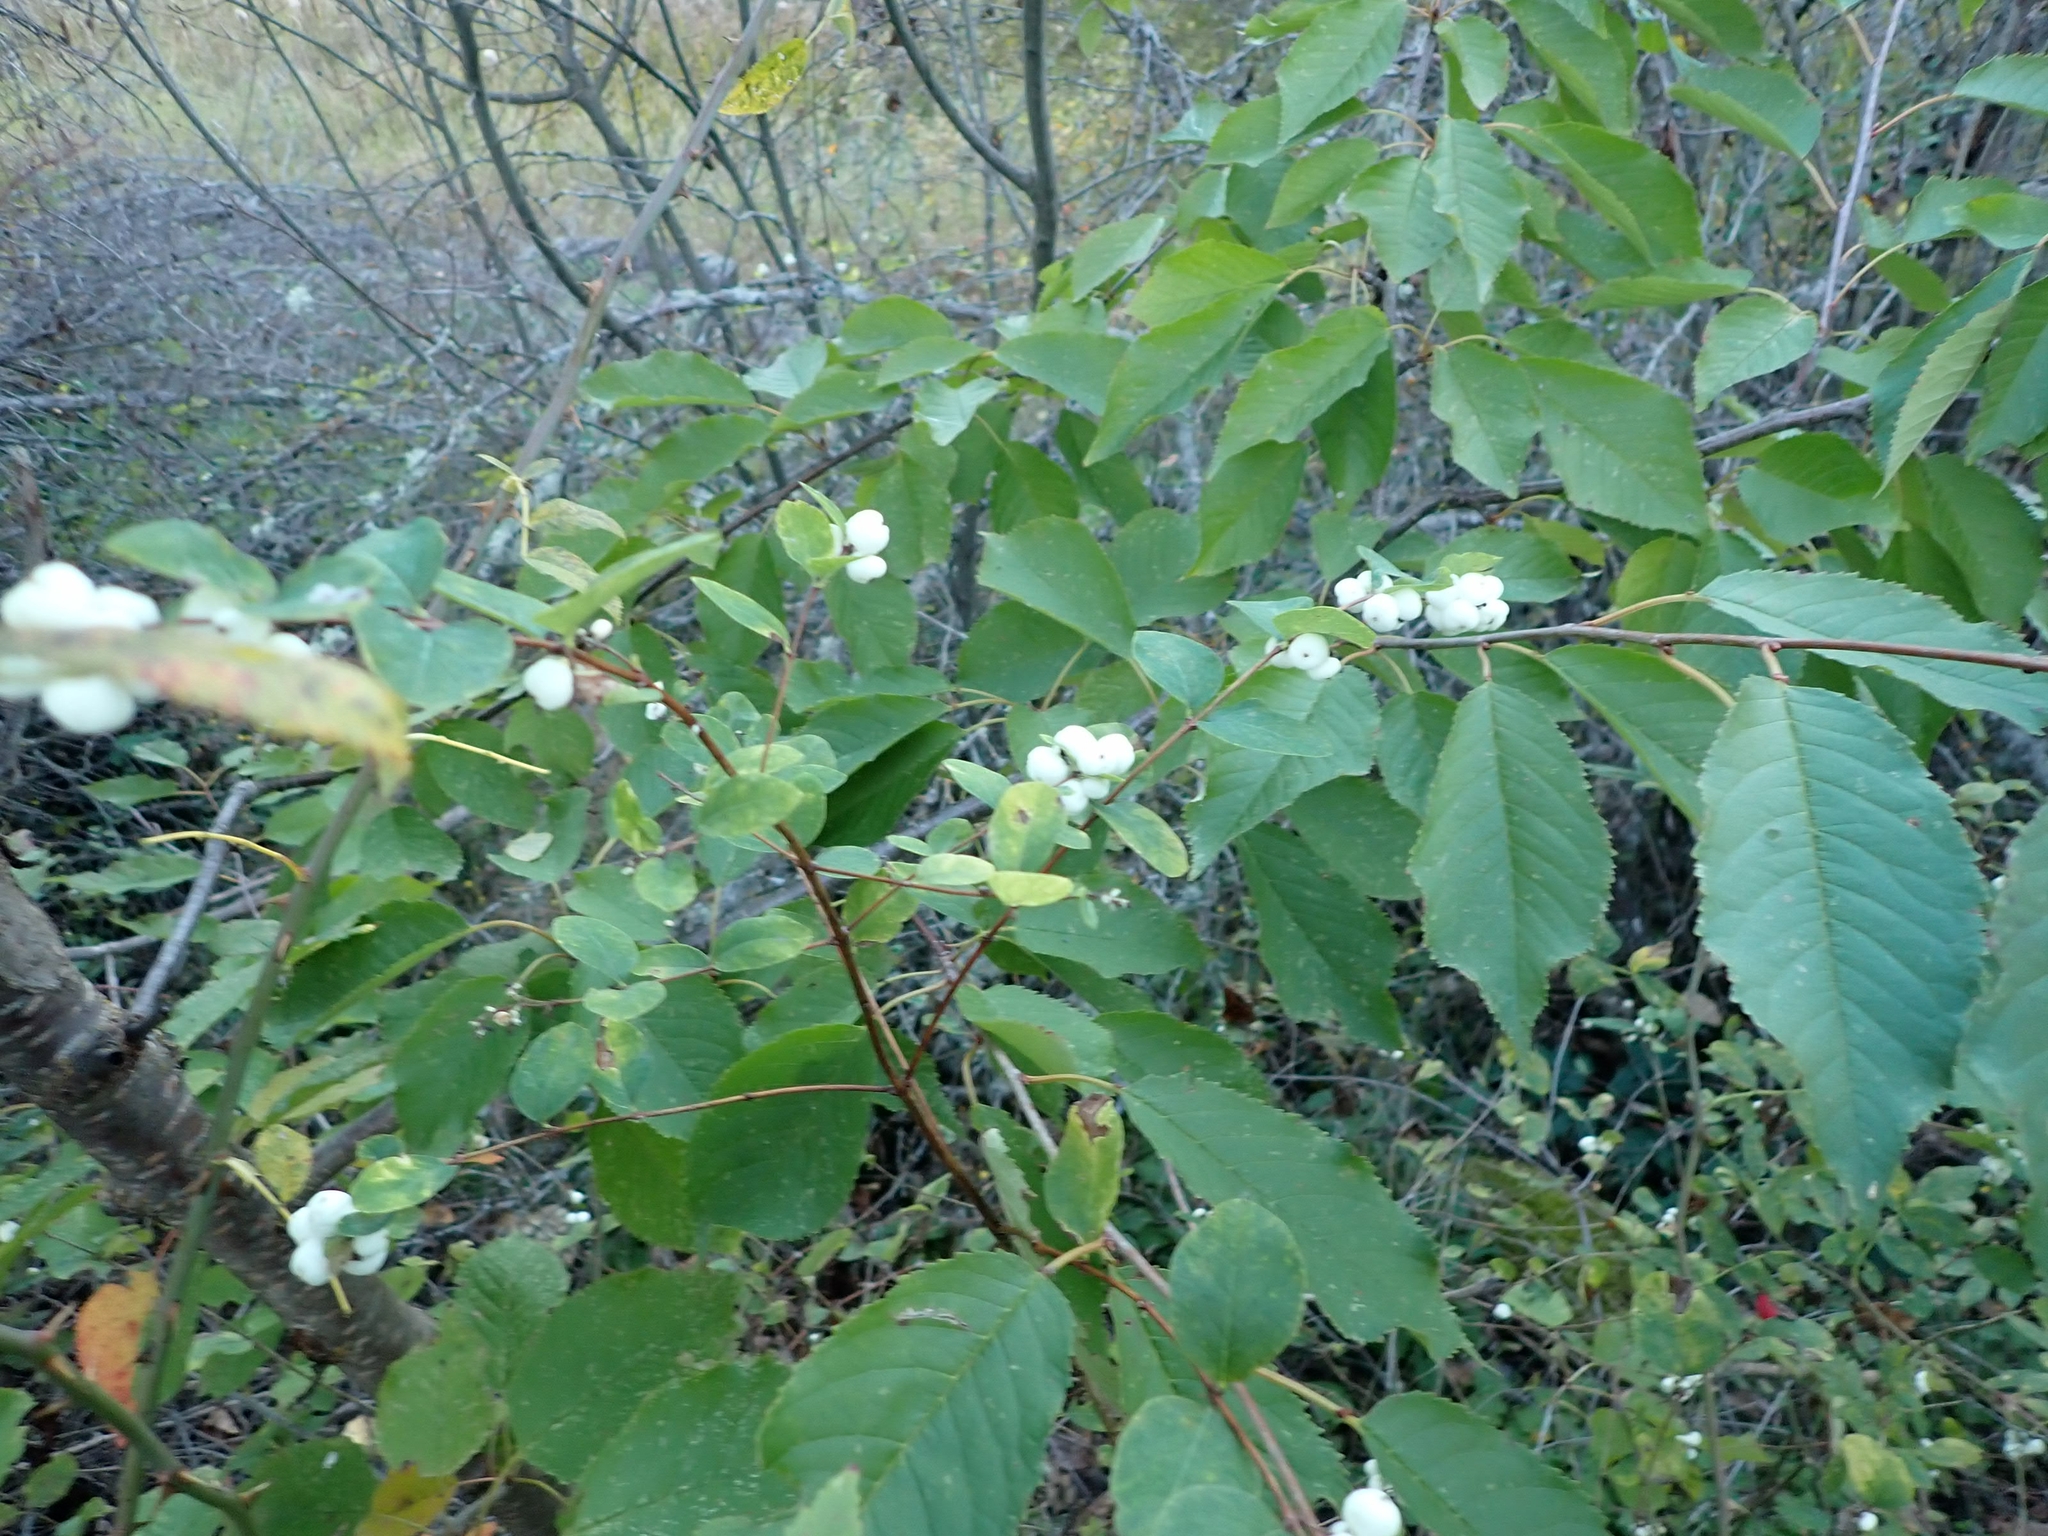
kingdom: Plantae
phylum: Tracheophyta
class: Magnoliopsida
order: Dipsacales
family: Caprifoliaceae
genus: Symphoricarpos
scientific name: Symphoricarpos albus
